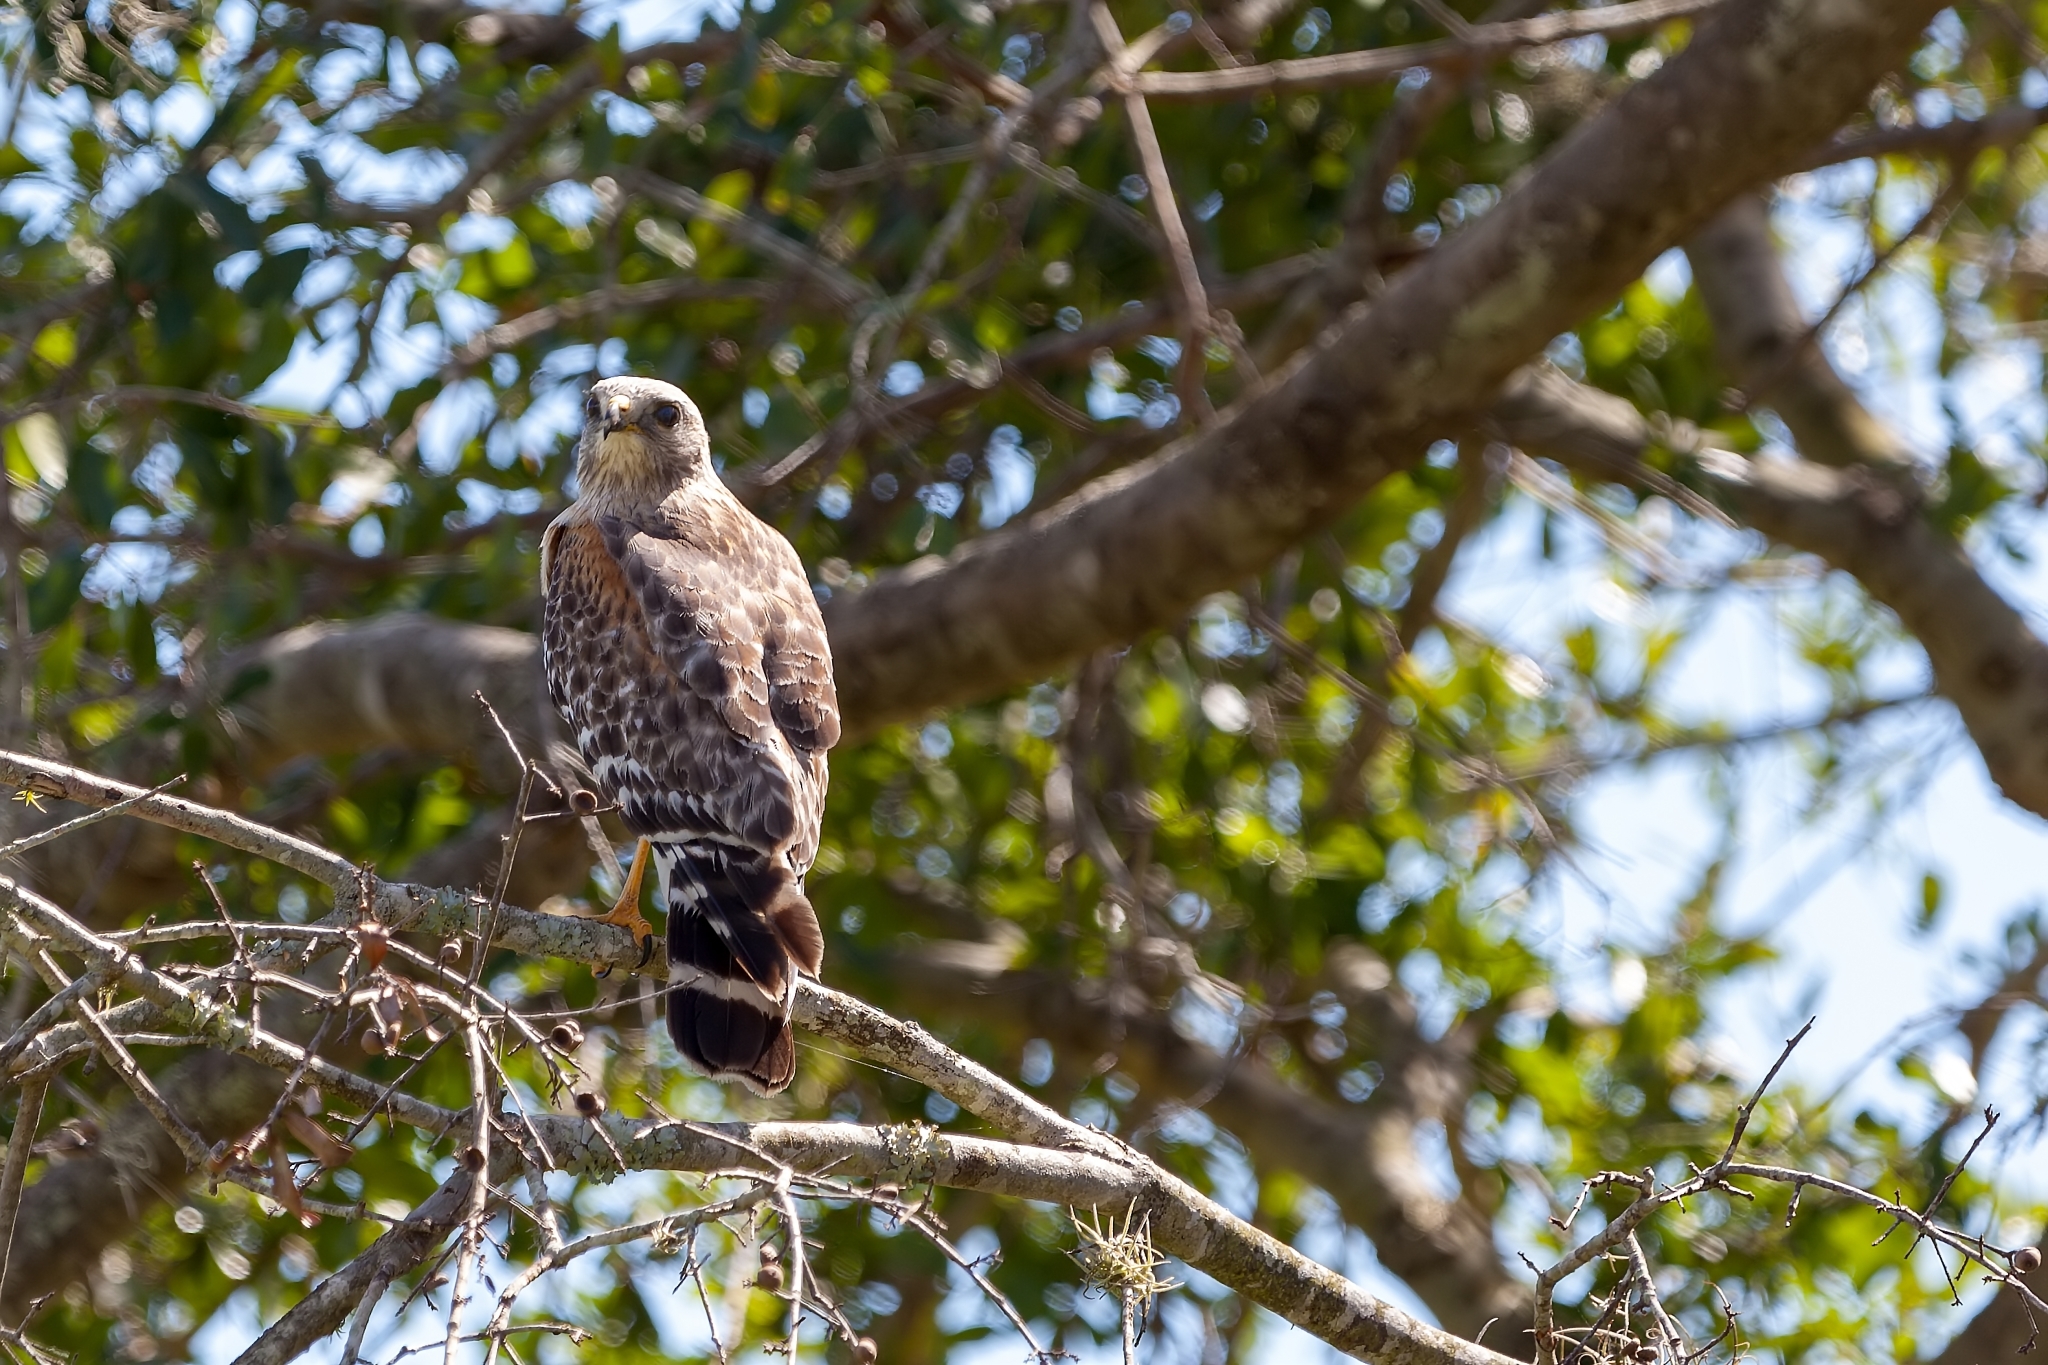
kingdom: Animalia
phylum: Chordata
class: Aves
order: Accipitriformes
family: Accipitridae
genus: Buteo
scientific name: Buteo lineatus
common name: Red-shouldered hawk
